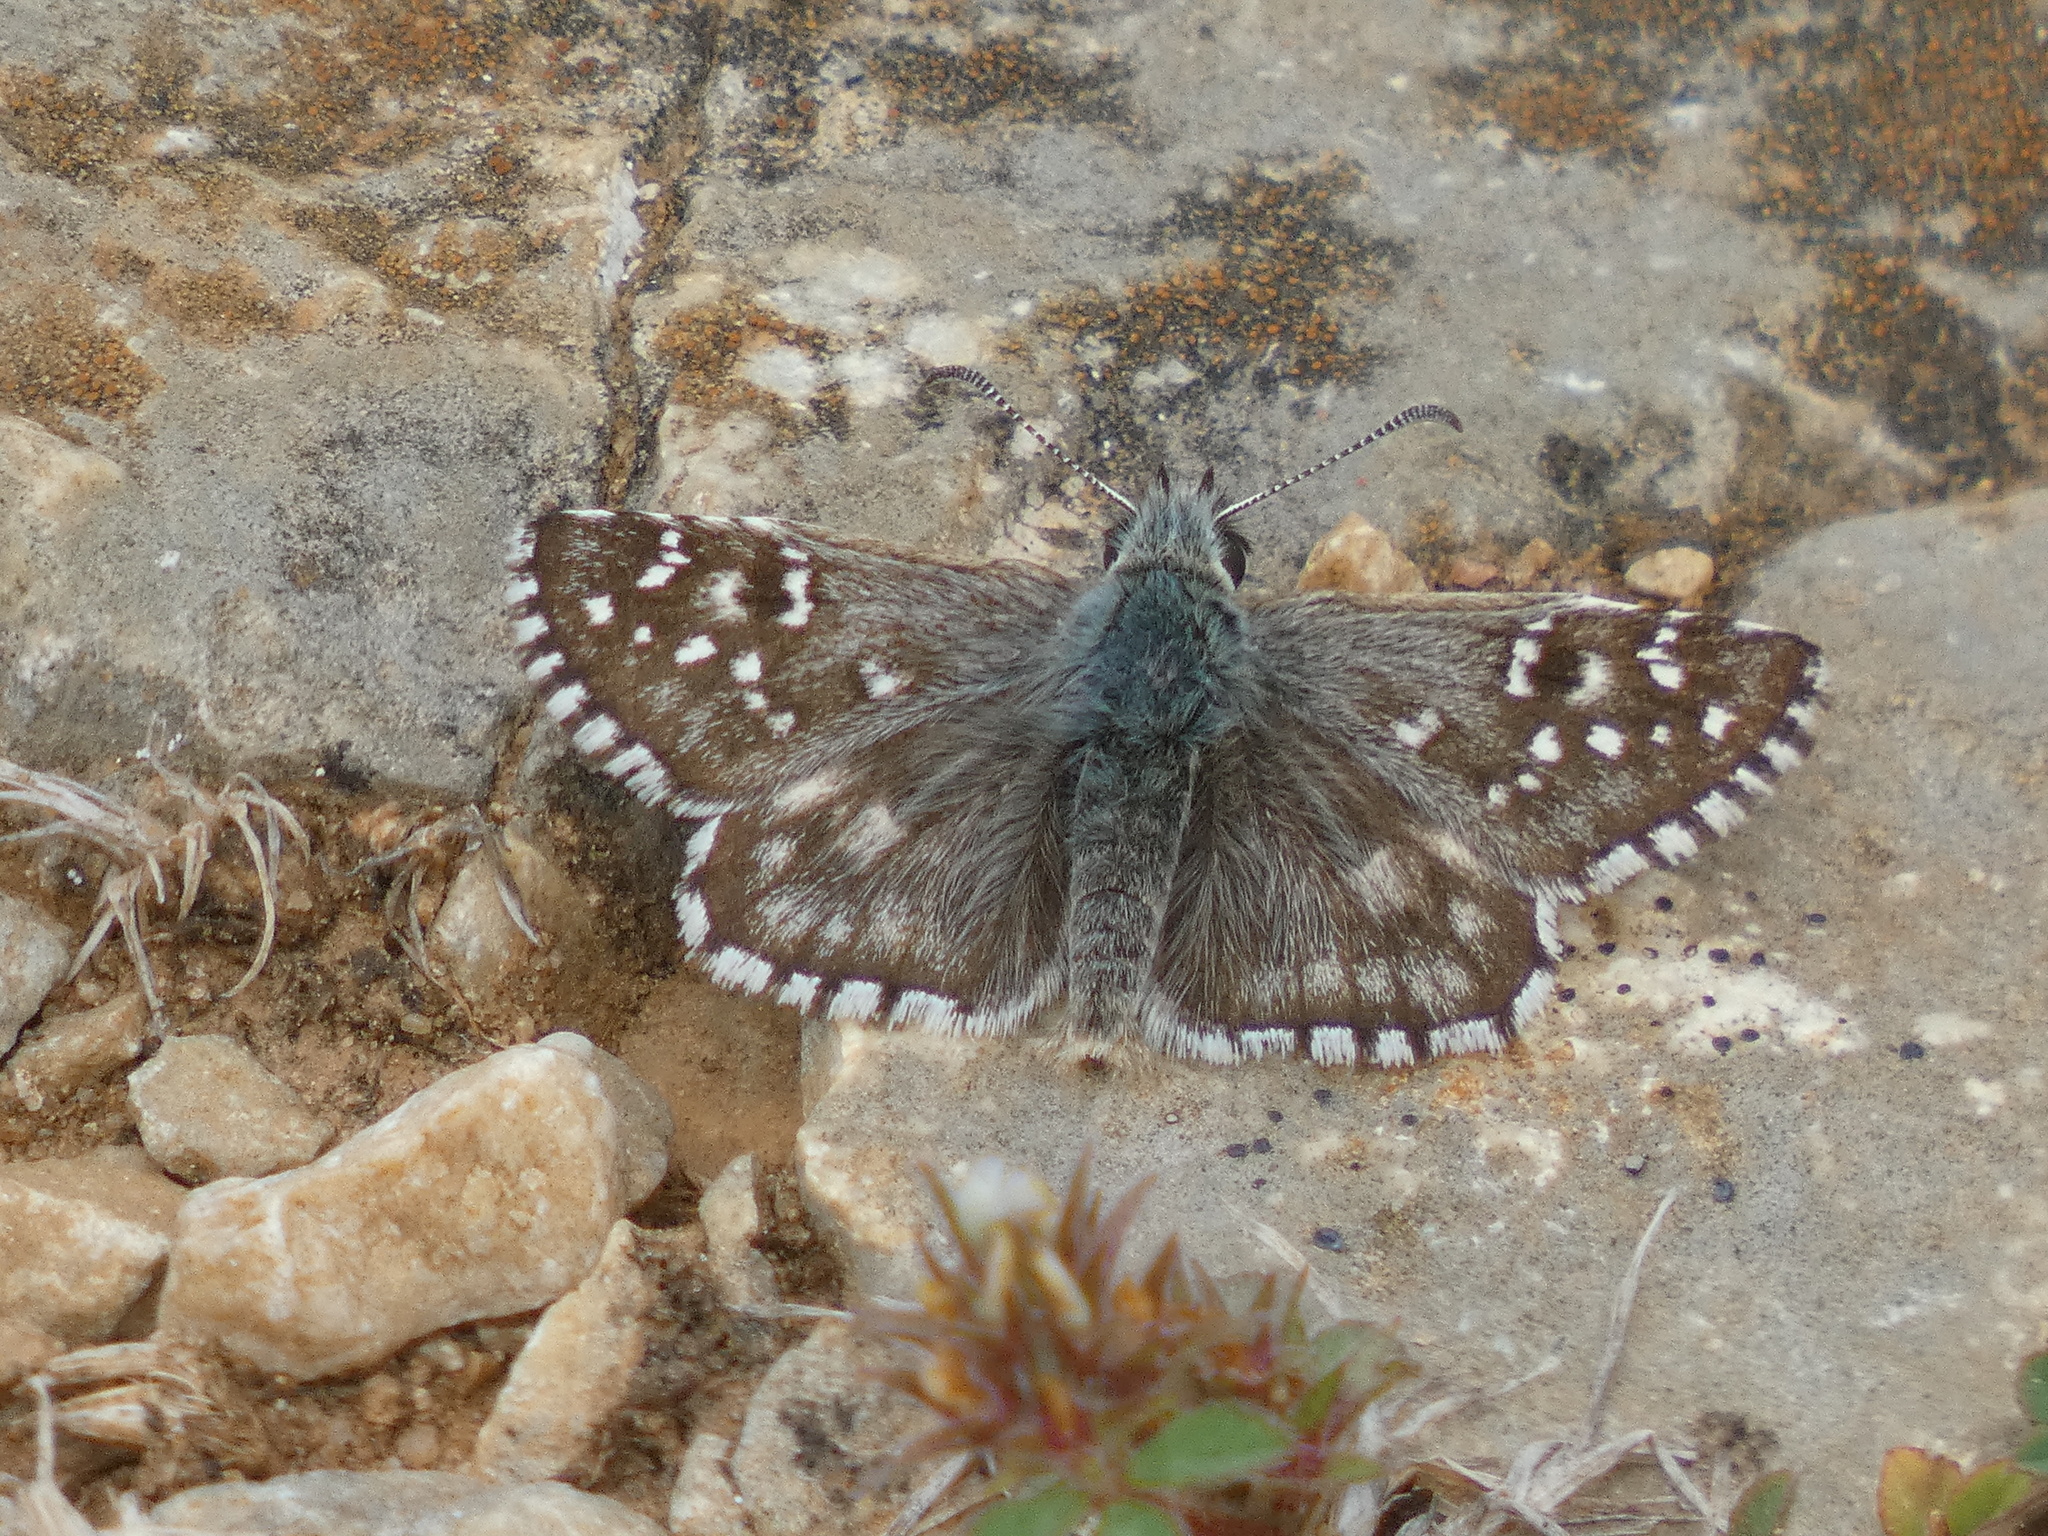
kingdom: Animalia
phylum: Arthropoda
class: Insecta
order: Lepidoptera
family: Hesperiidae
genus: Pyrgus
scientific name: Pyrgus onopordi
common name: Rosy grizzled skipper
